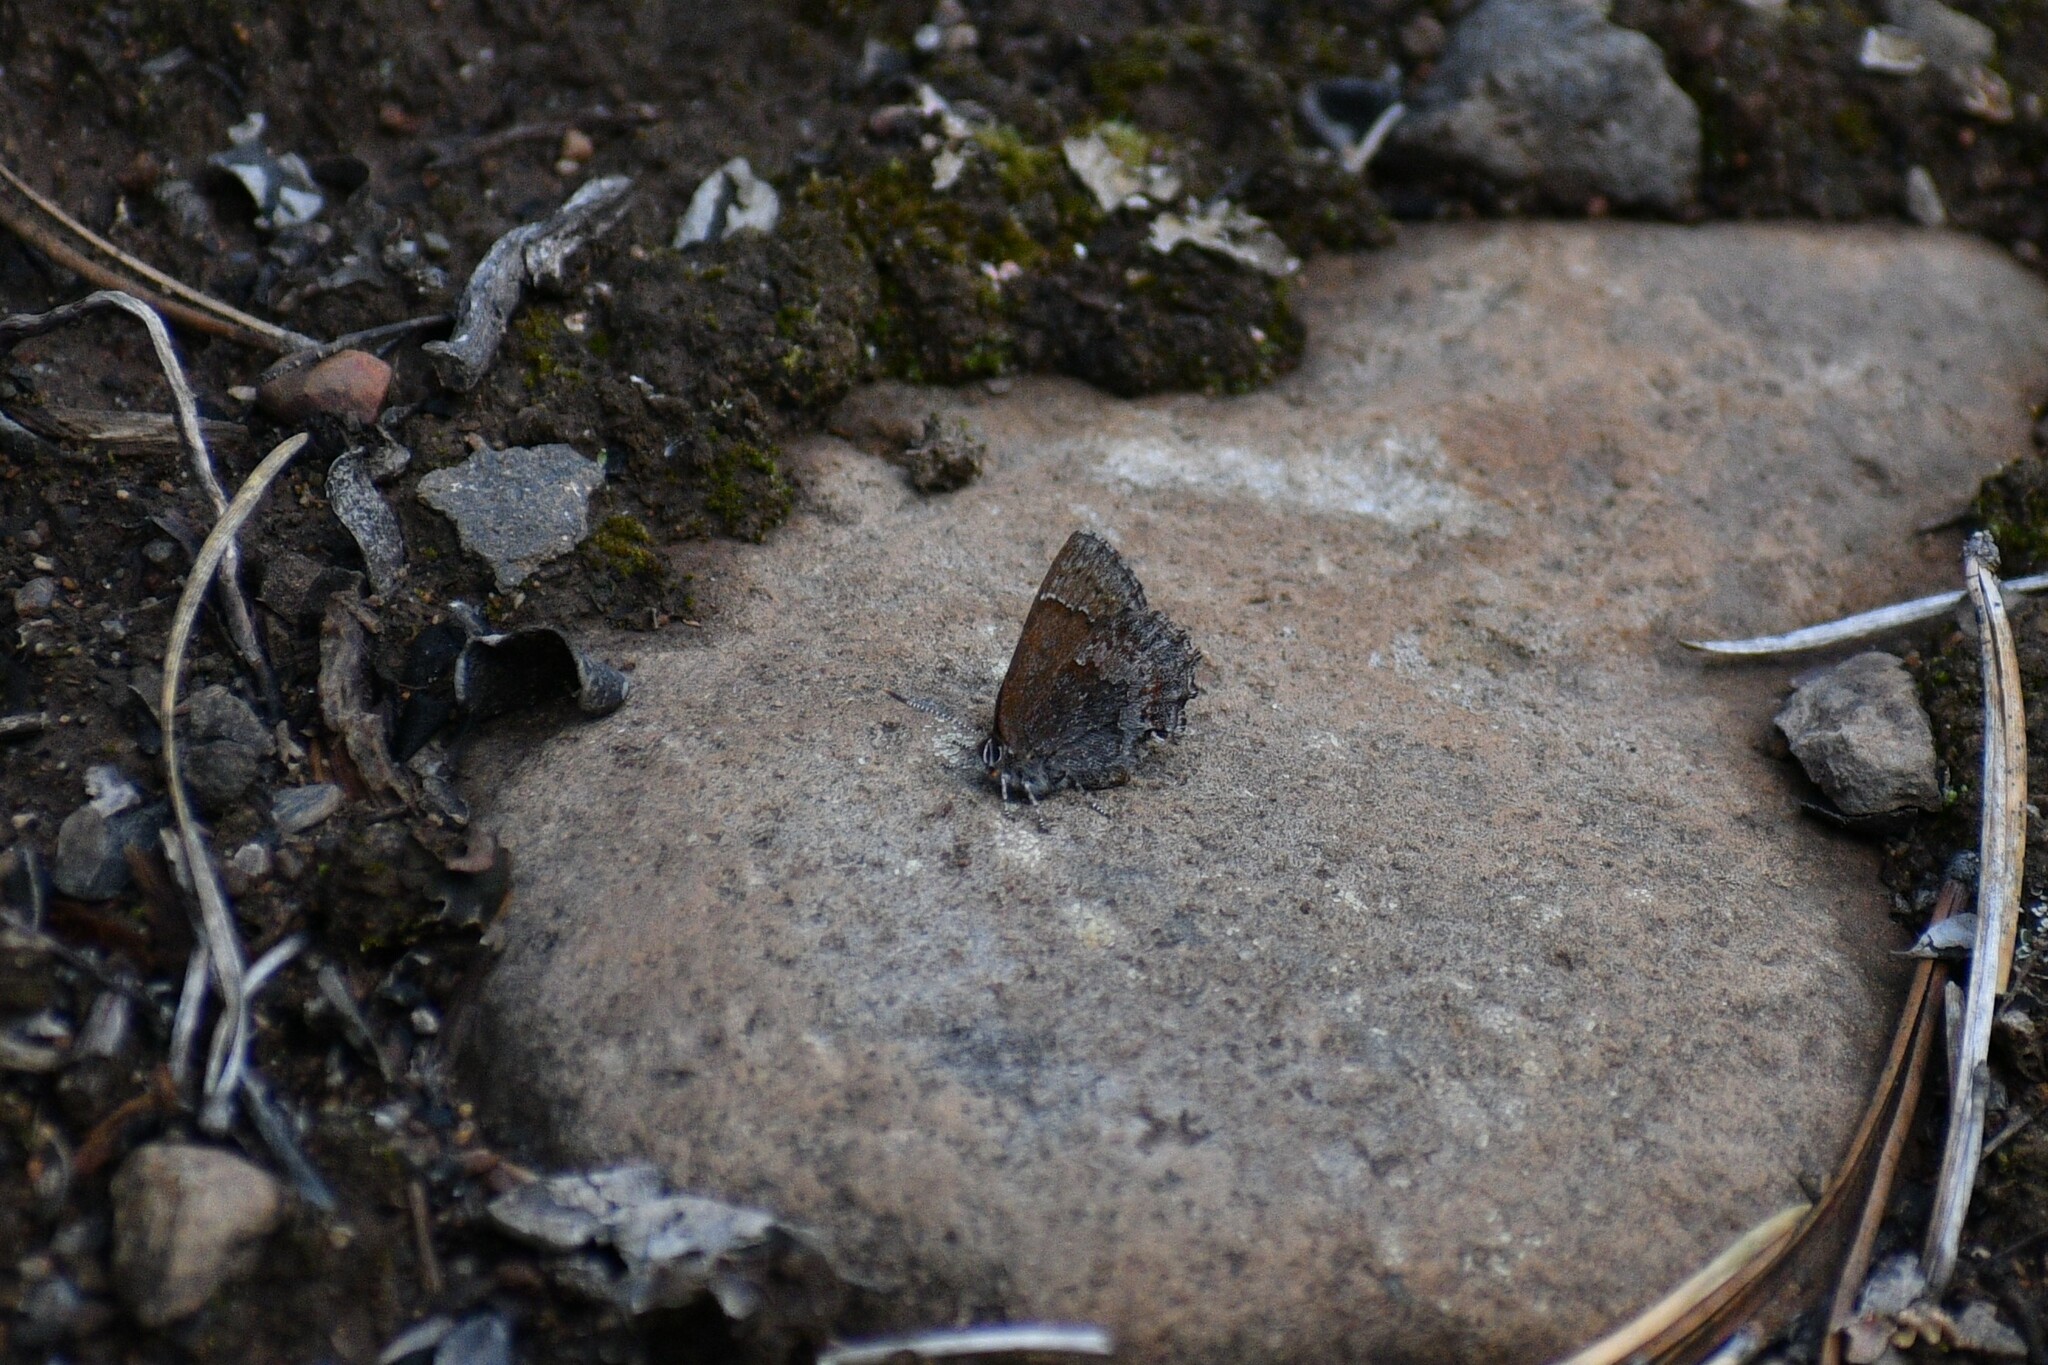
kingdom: Animalia
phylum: Arthropoda
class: Insecta
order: Lepidoptera
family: Lycaenidae
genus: Callophrys
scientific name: Callophrys polios
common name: Hoary elfin
